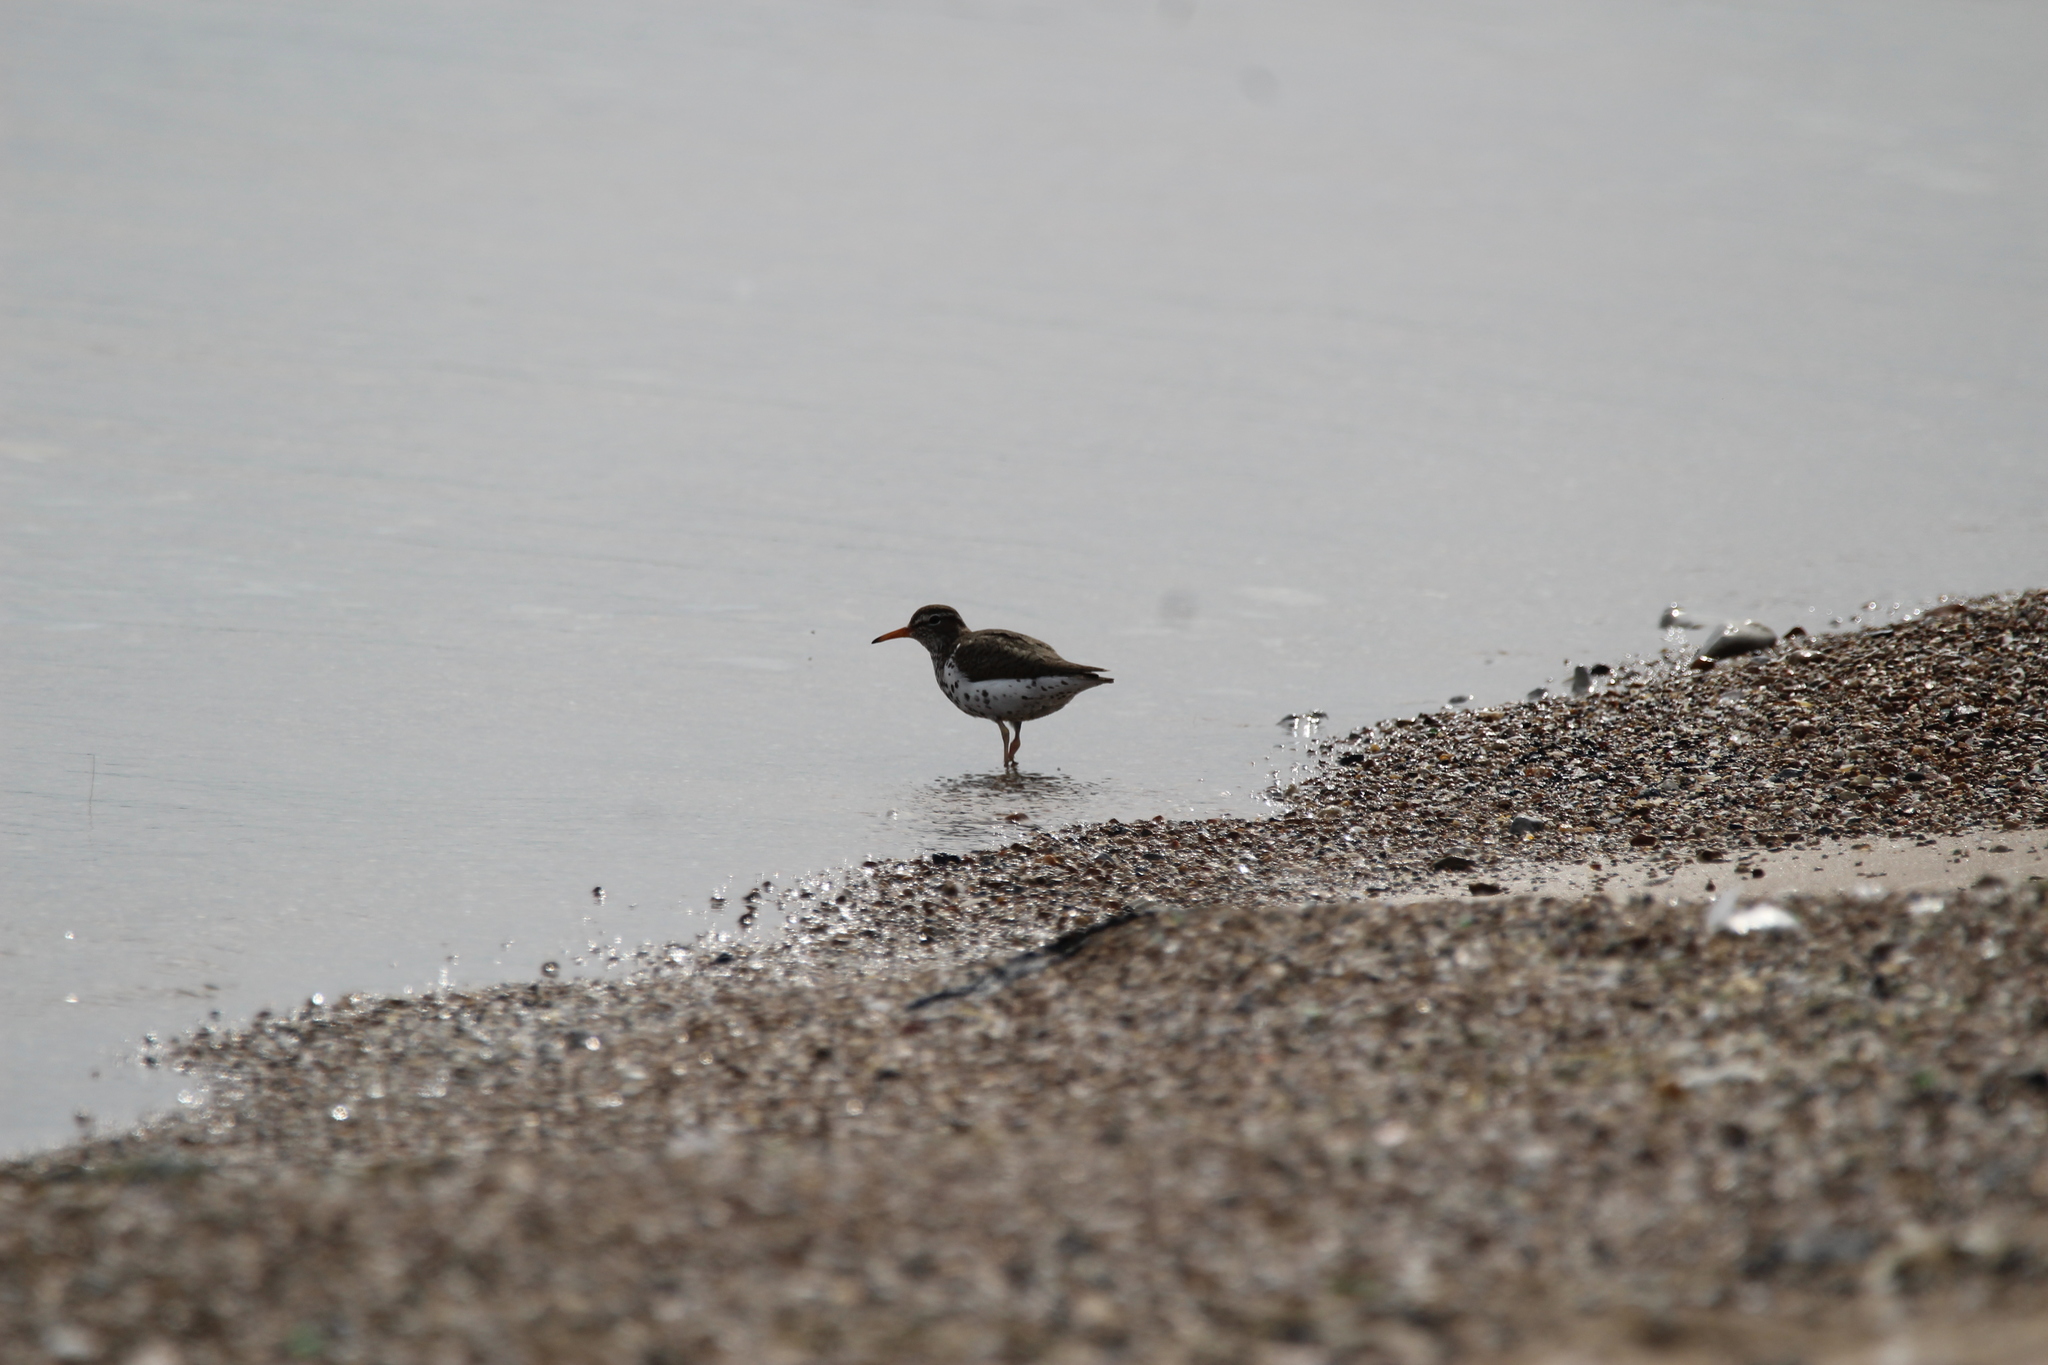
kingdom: Animalia
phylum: Chordata
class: Aves
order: Charadriiformes
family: Scolopacidae
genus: Actitis
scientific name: Actitis macularius
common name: Spotted sandpiper
